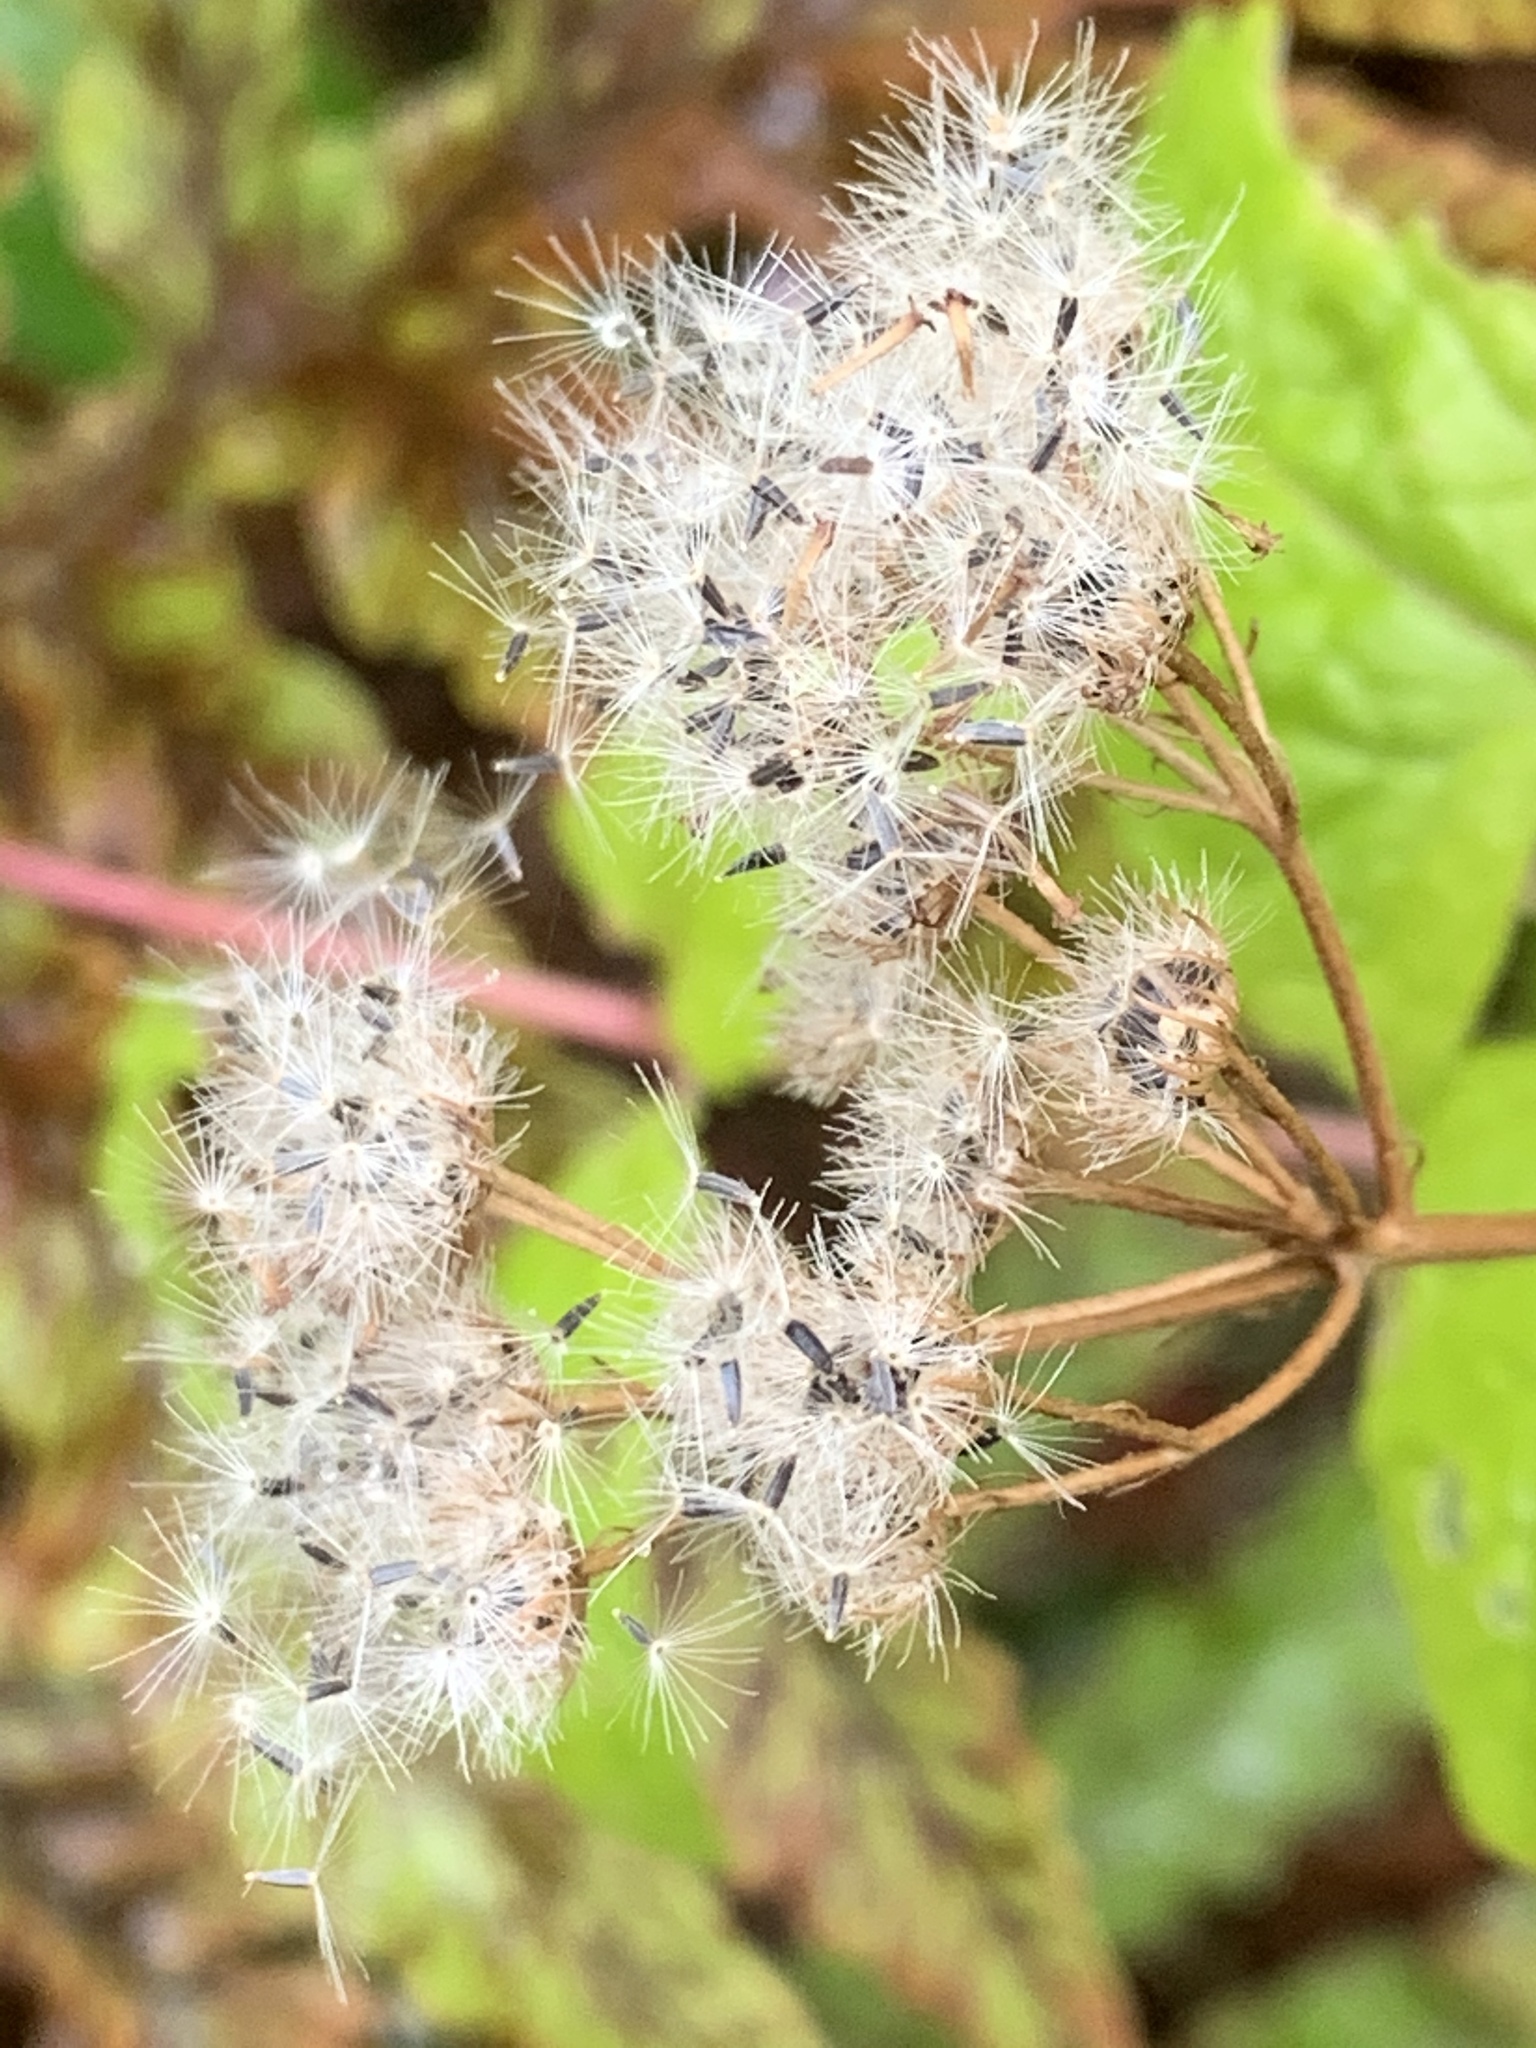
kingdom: Plantae
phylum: Tracheophyta
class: Magnoliopsida
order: Asterales
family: Asteraceae
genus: Conoclinium
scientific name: Conoclinium coelestinum
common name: Blue mistflower
